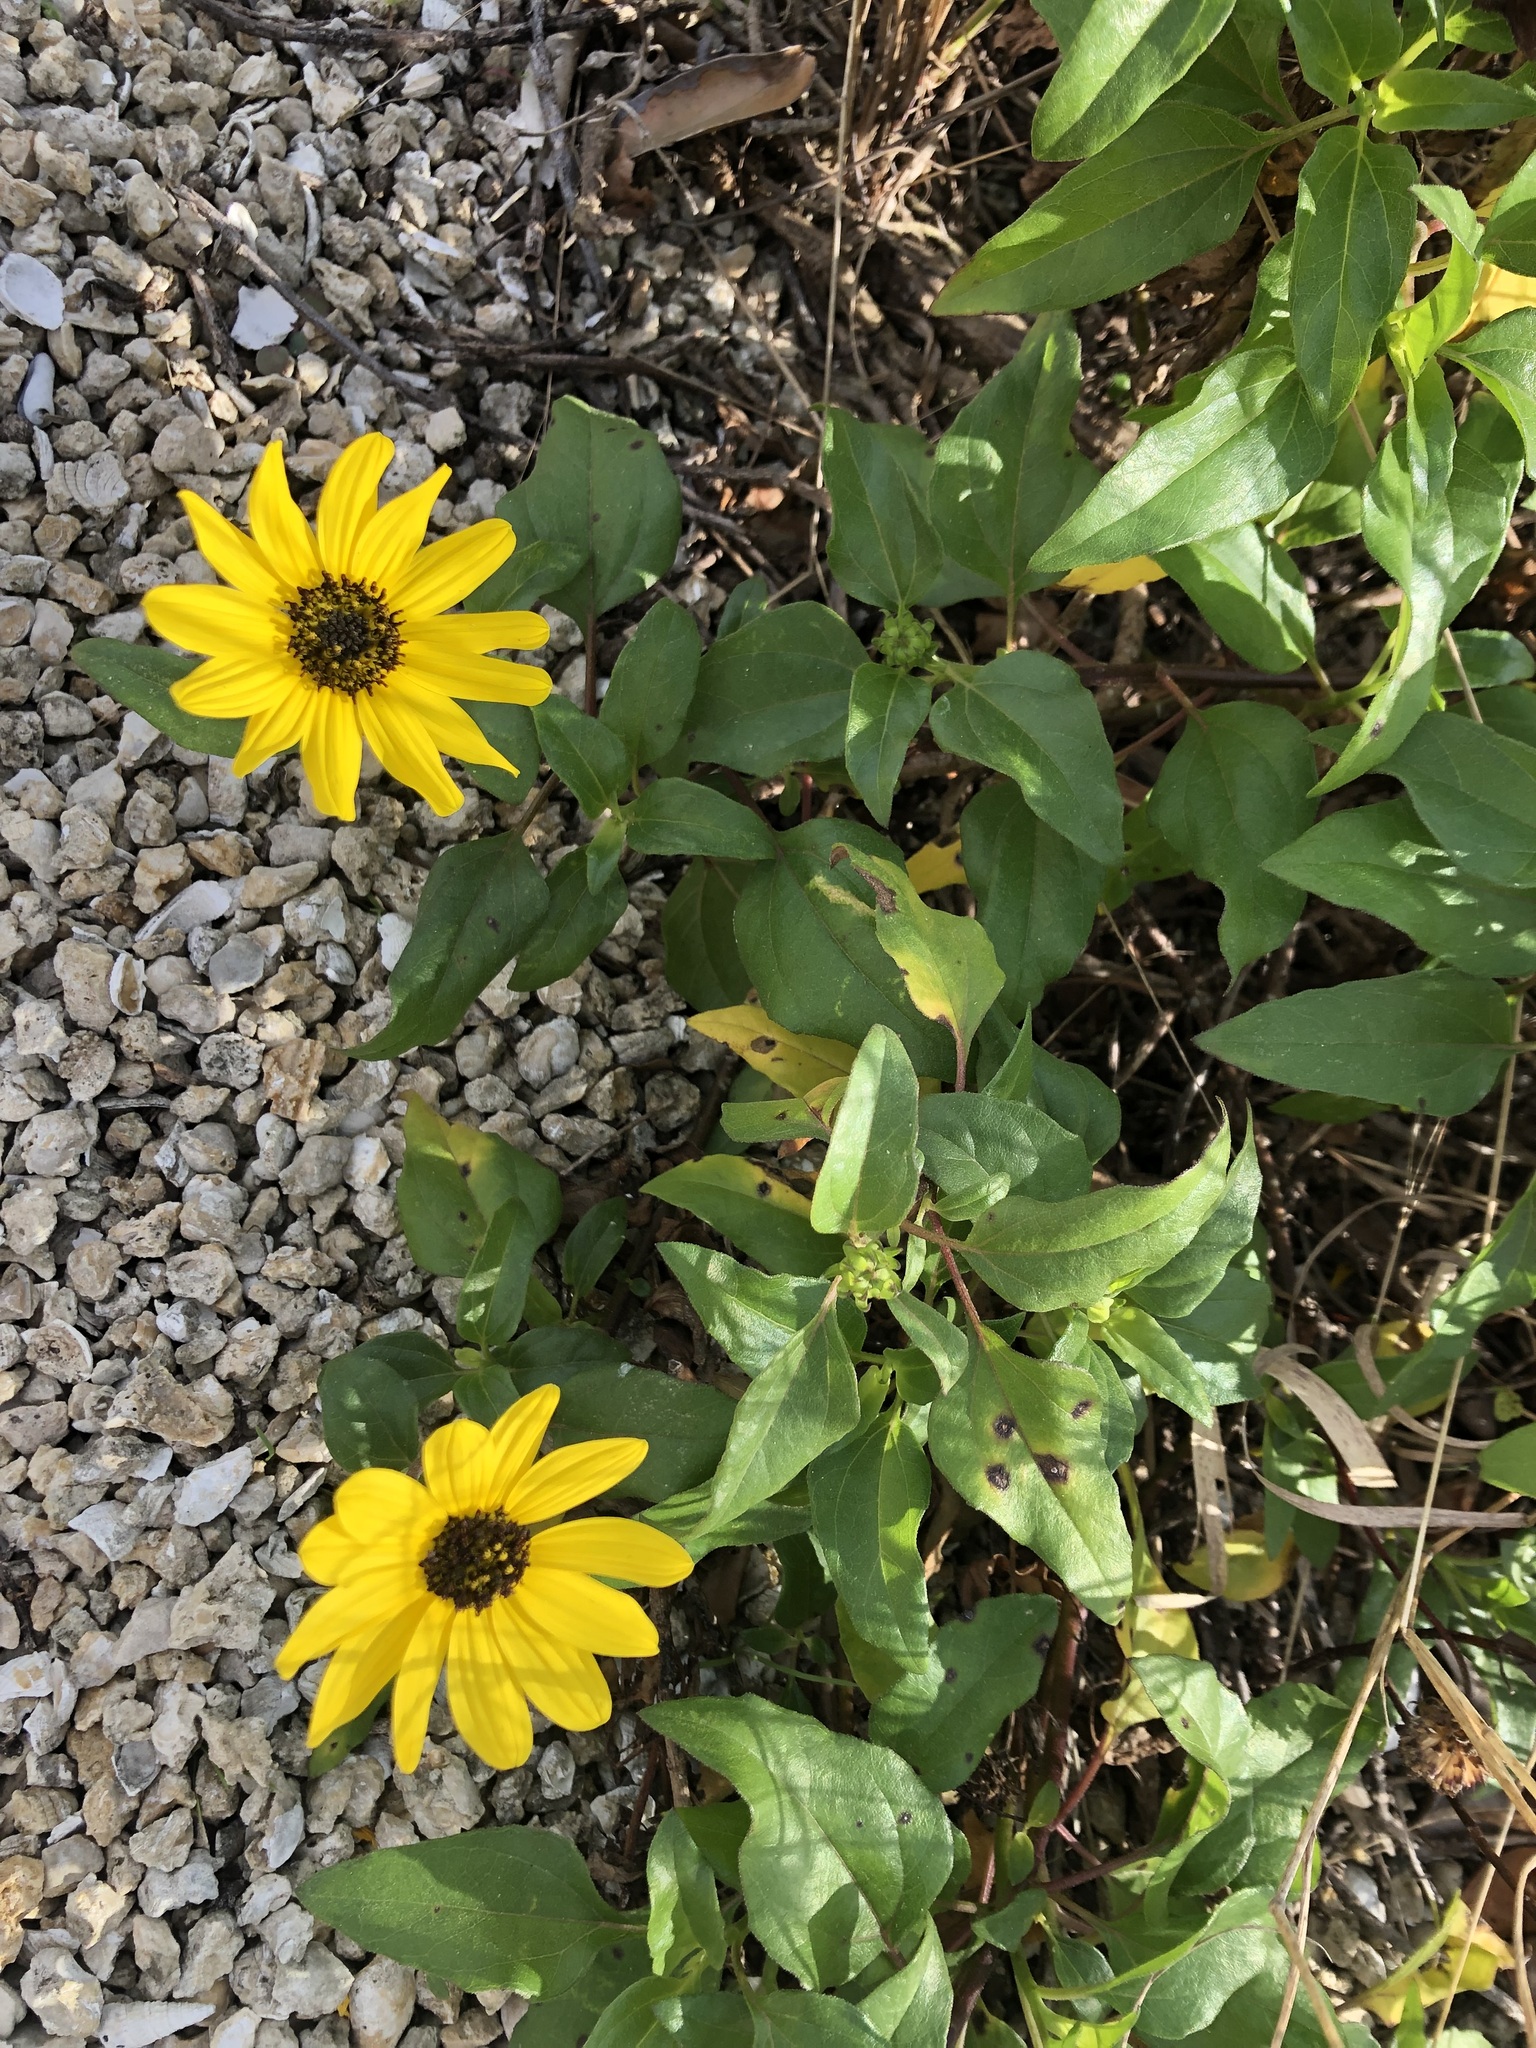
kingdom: Plantae
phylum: Tracheophyta
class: Magnoliopsida
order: Asterales
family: Asteraceae
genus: Helianthus
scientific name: Helianthus debilis
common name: Weak sunflower
